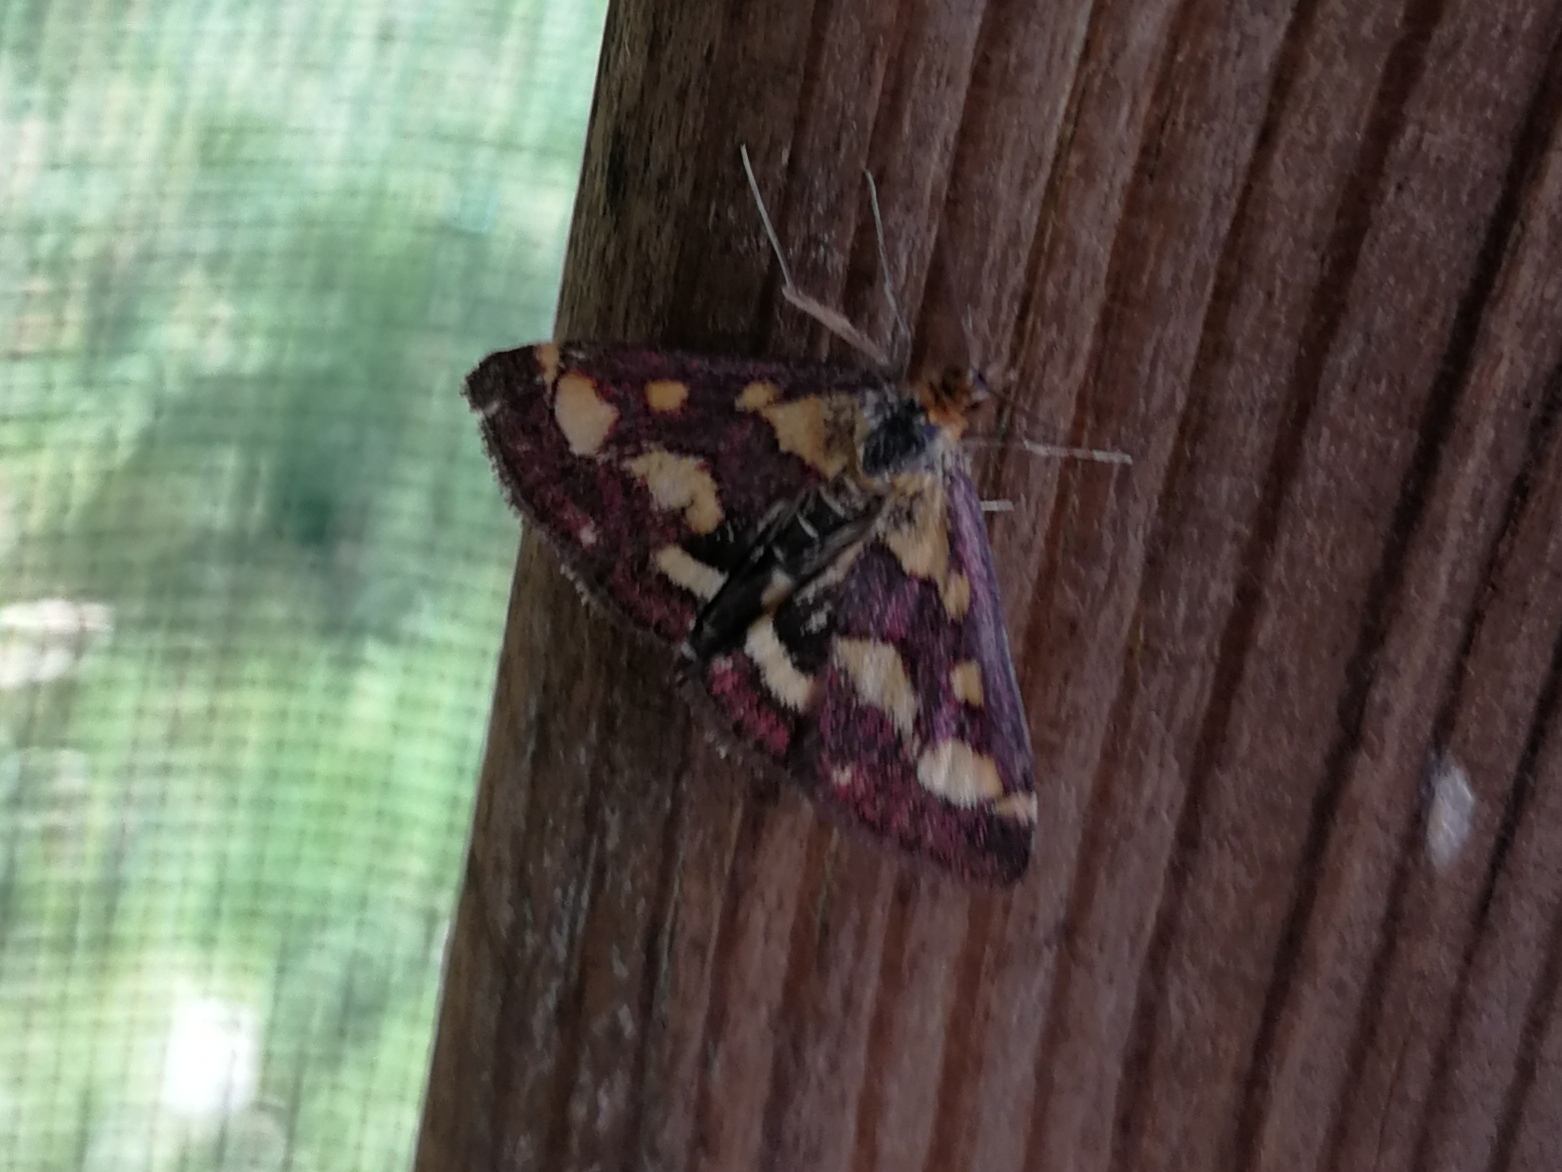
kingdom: Animalia
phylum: Arthropoda
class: Insecta
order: Lepidoptera
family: Crambidae
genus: Pyrausta
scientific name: Pyrausta purpuralis
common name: Common purple & gold
